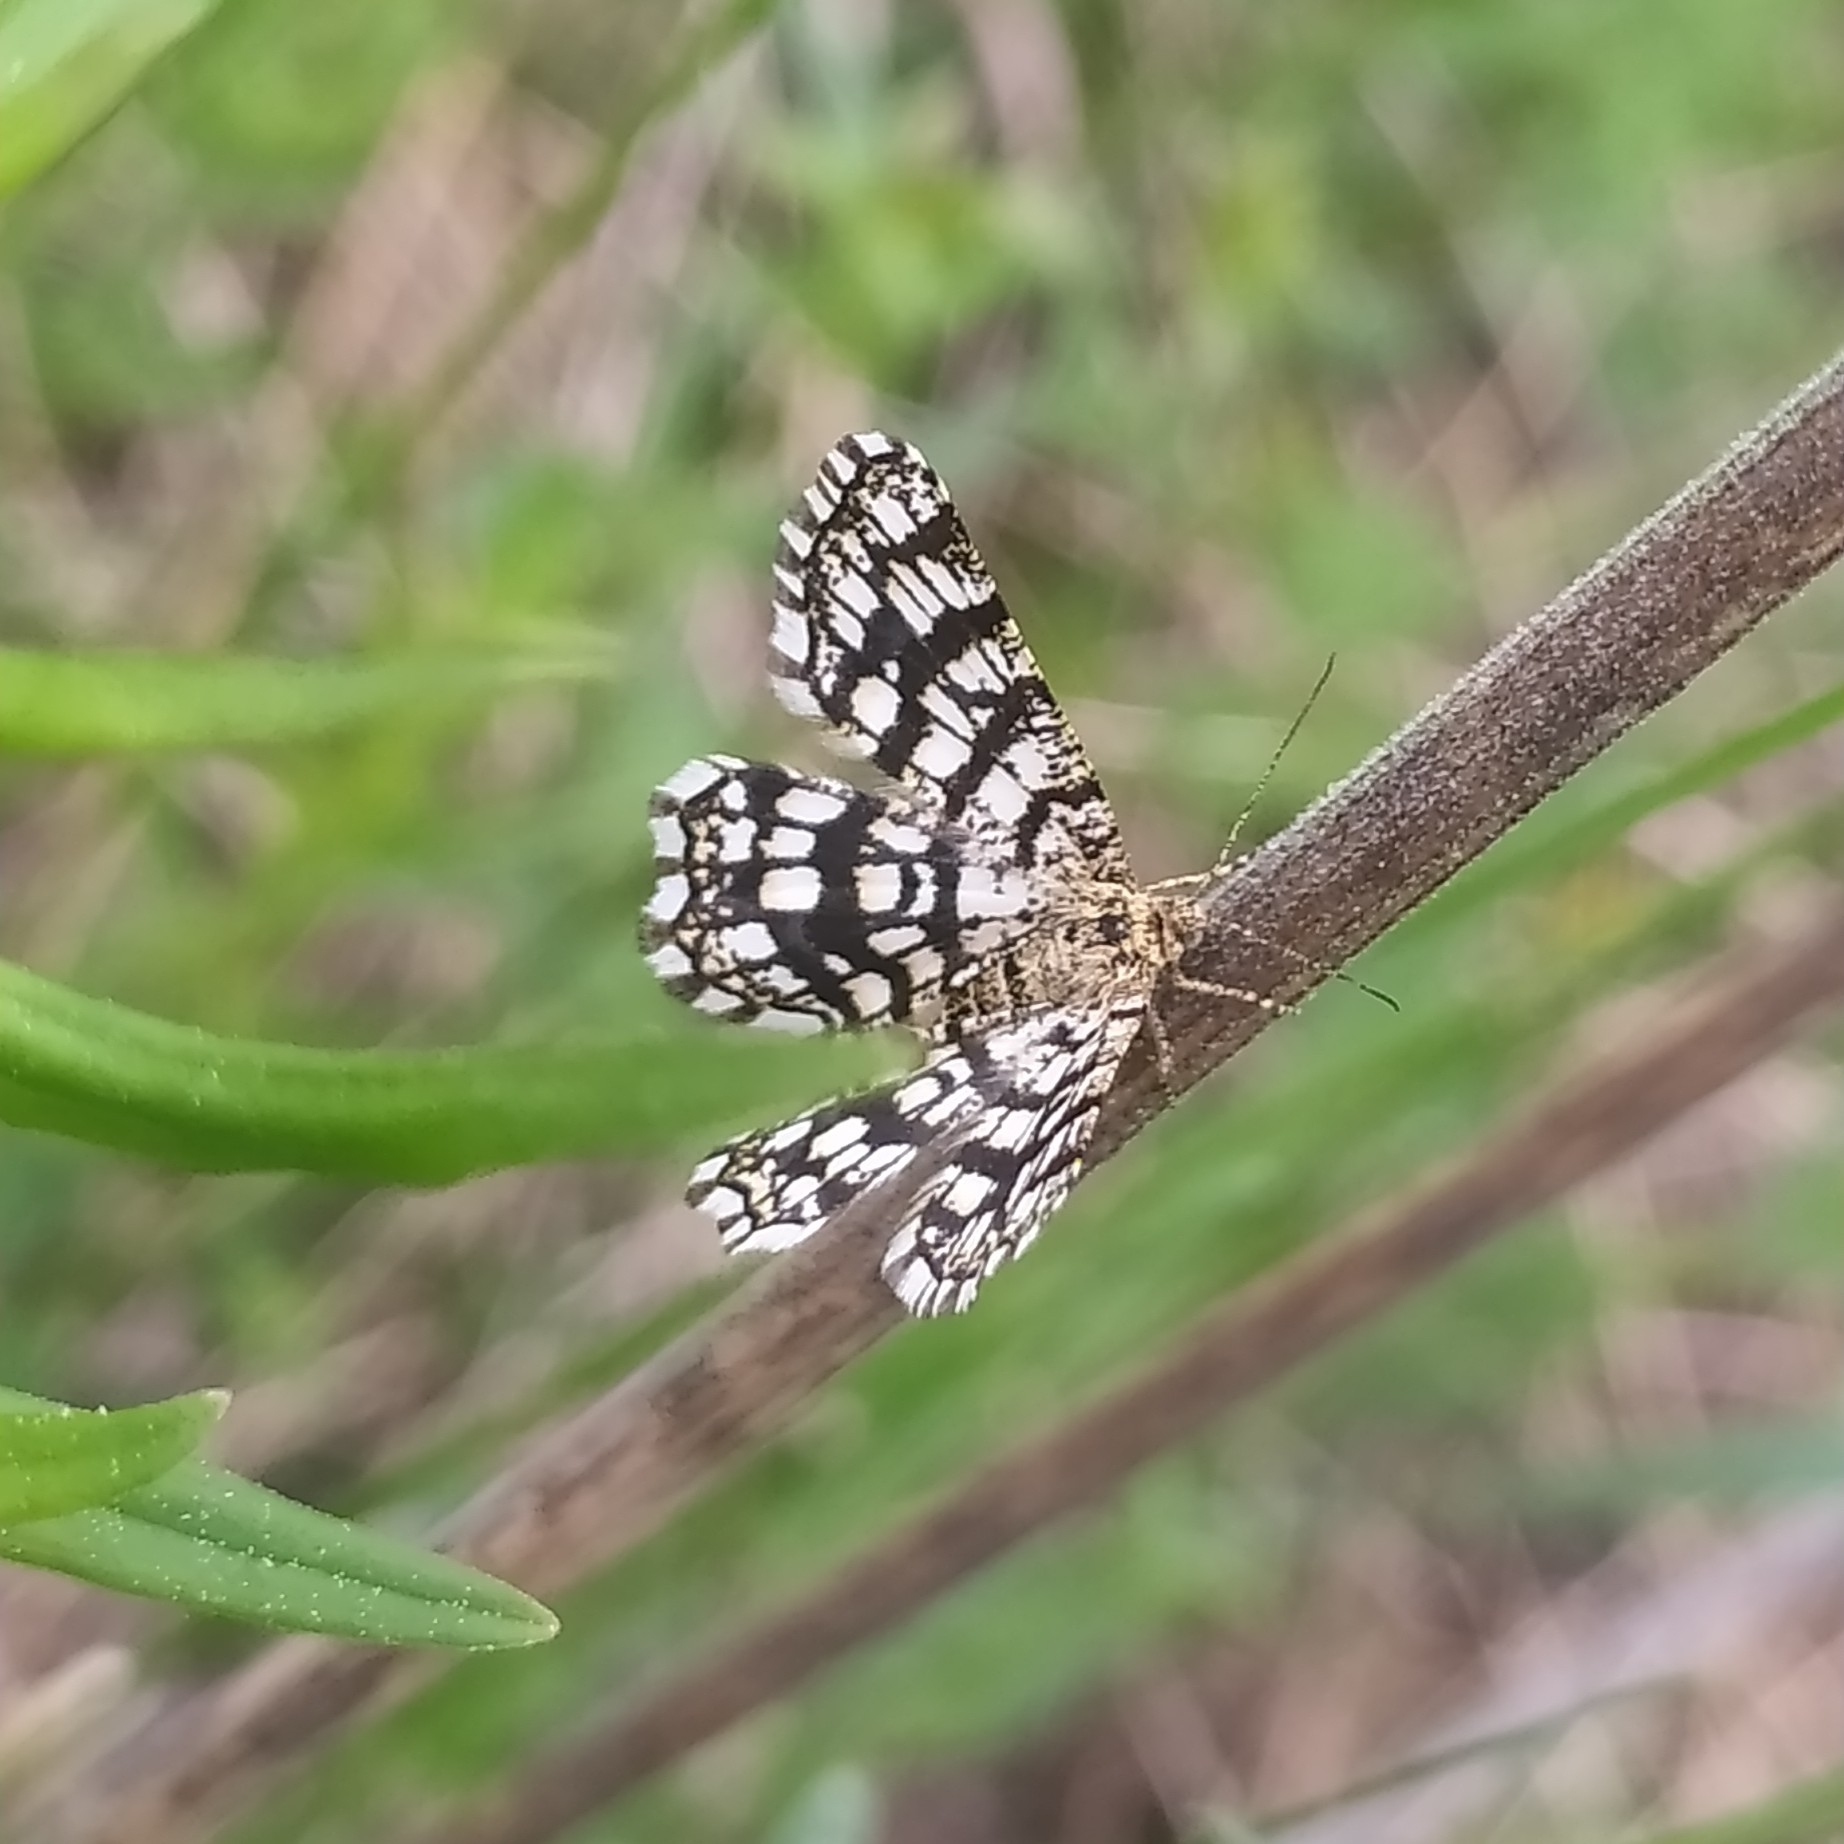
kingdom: Animalia
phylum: Arthropoda
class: Insecta
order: Lepidoptera
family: Geometridae
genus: Chiasmia
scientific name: Chiasmia clathrata
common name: Latticed heath
